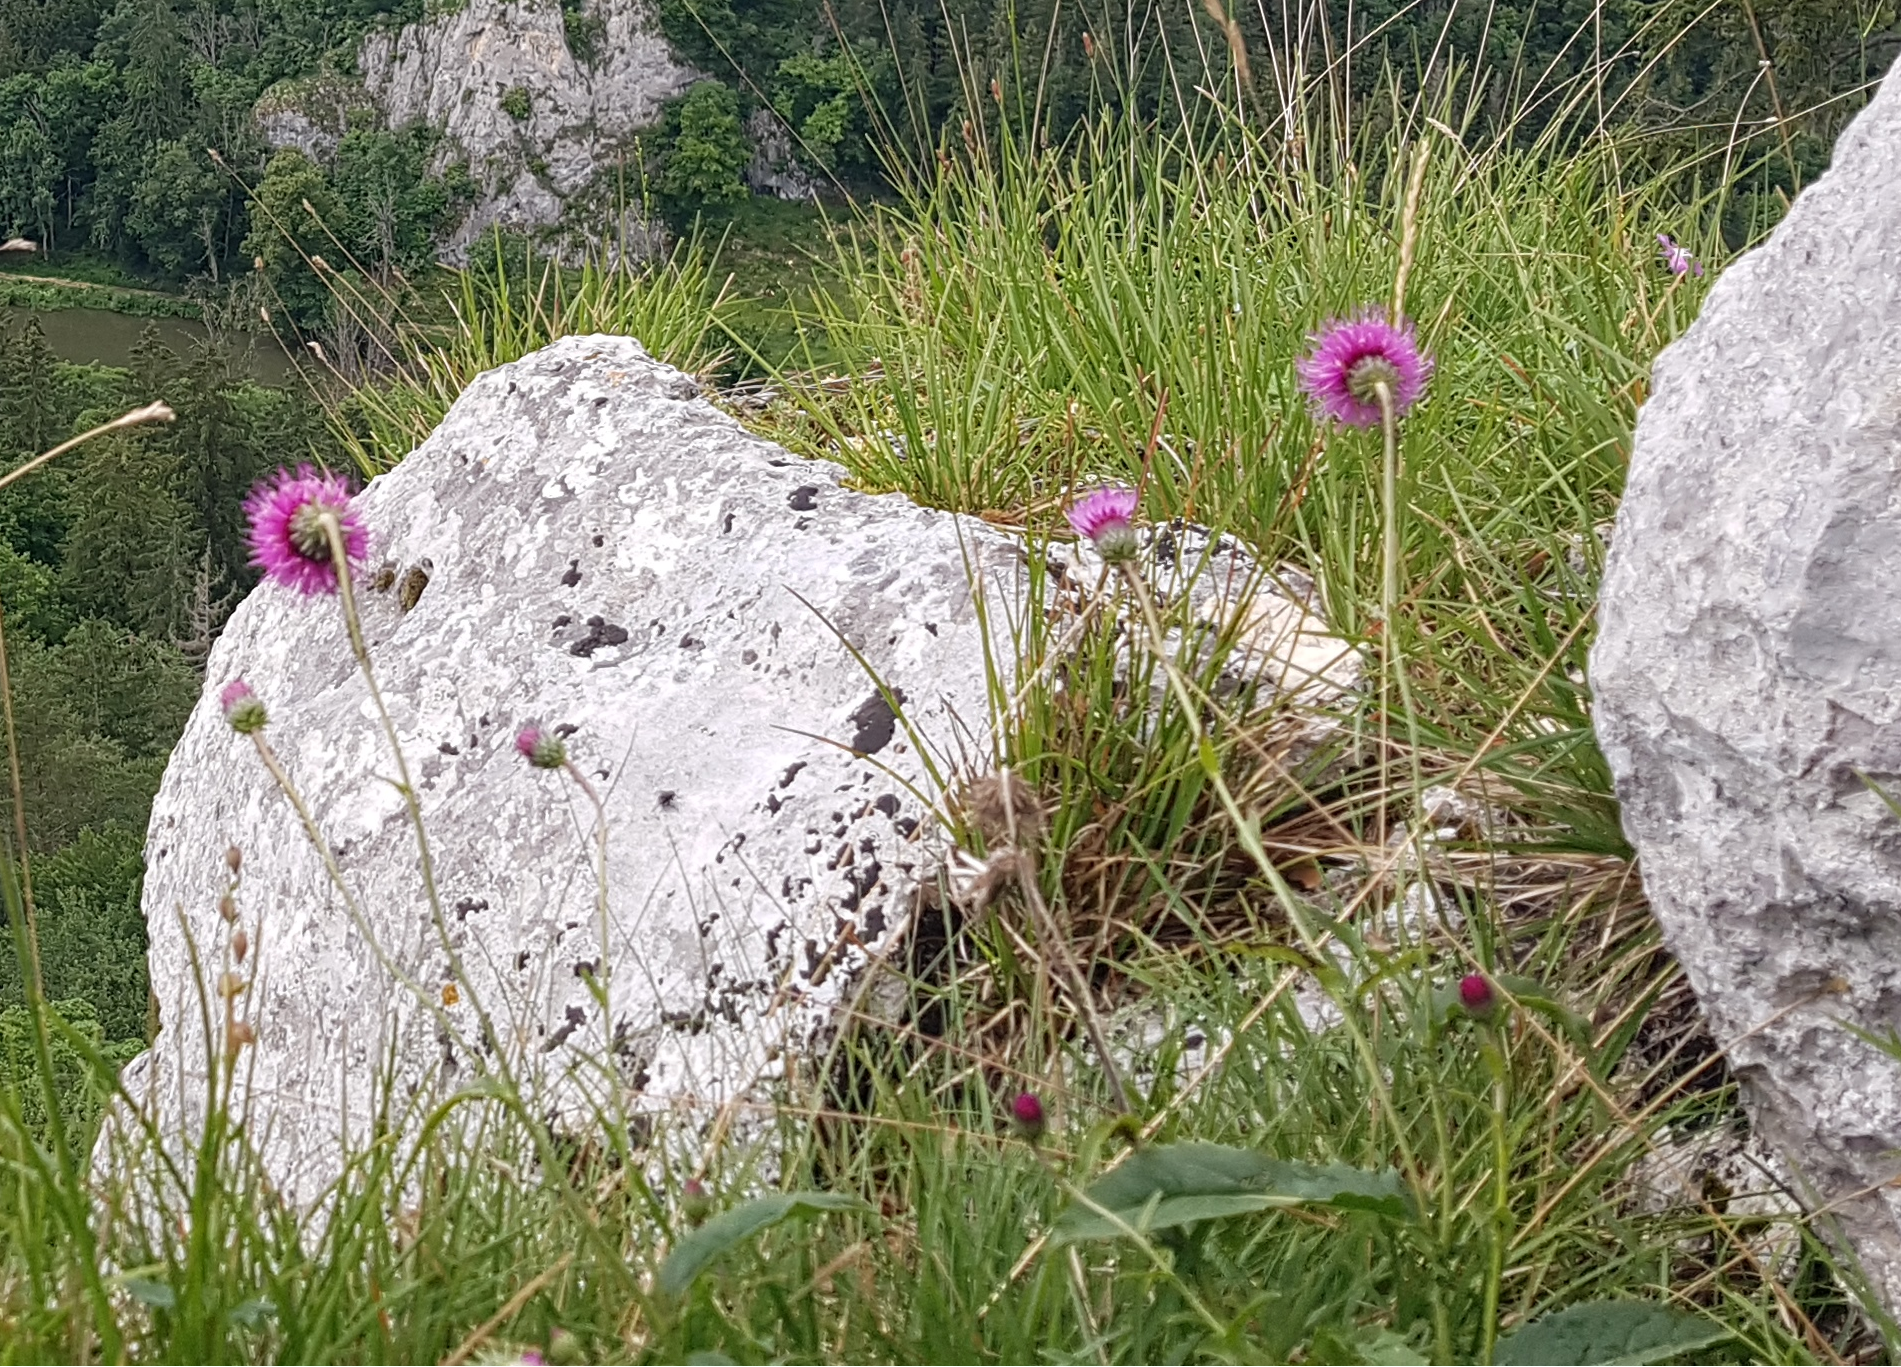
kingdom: Plantae
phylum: Tracheophyta
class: Magnoliopsida
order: Asterales
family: Asteraceae
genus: Carduus
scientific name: Carduus defloratus
